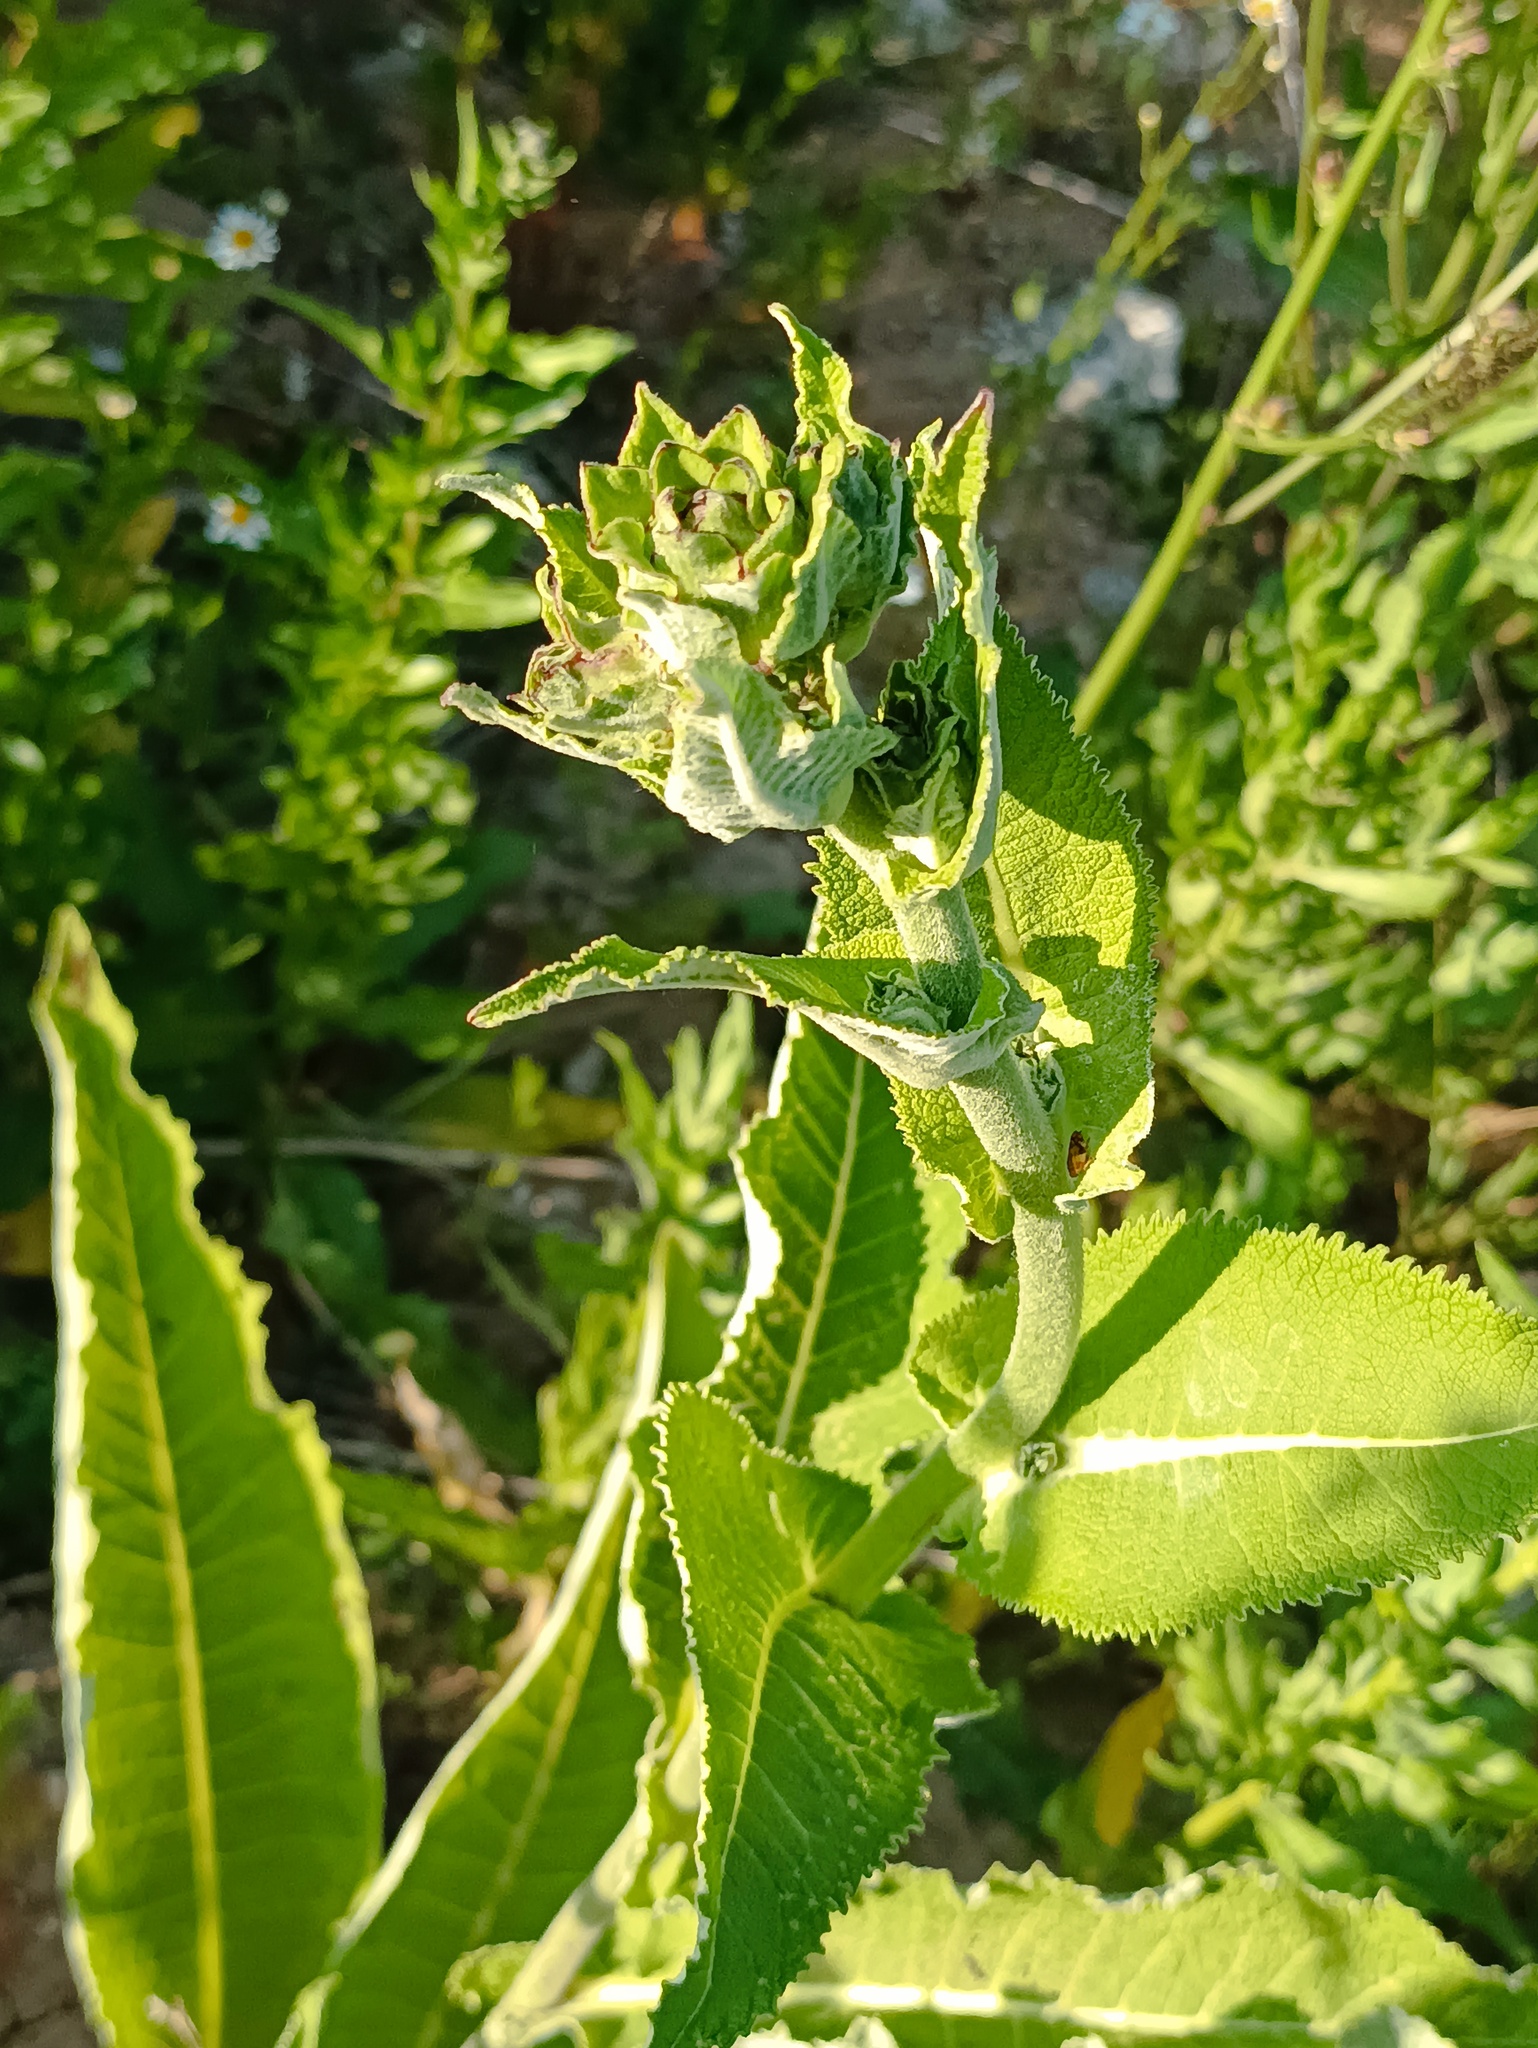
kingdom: Plantae
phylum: Tracheophyta
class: Magnoliopsida
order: Asterales
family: Asteraceae
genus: Inula
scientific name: Inula helenium
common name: Elecampane
